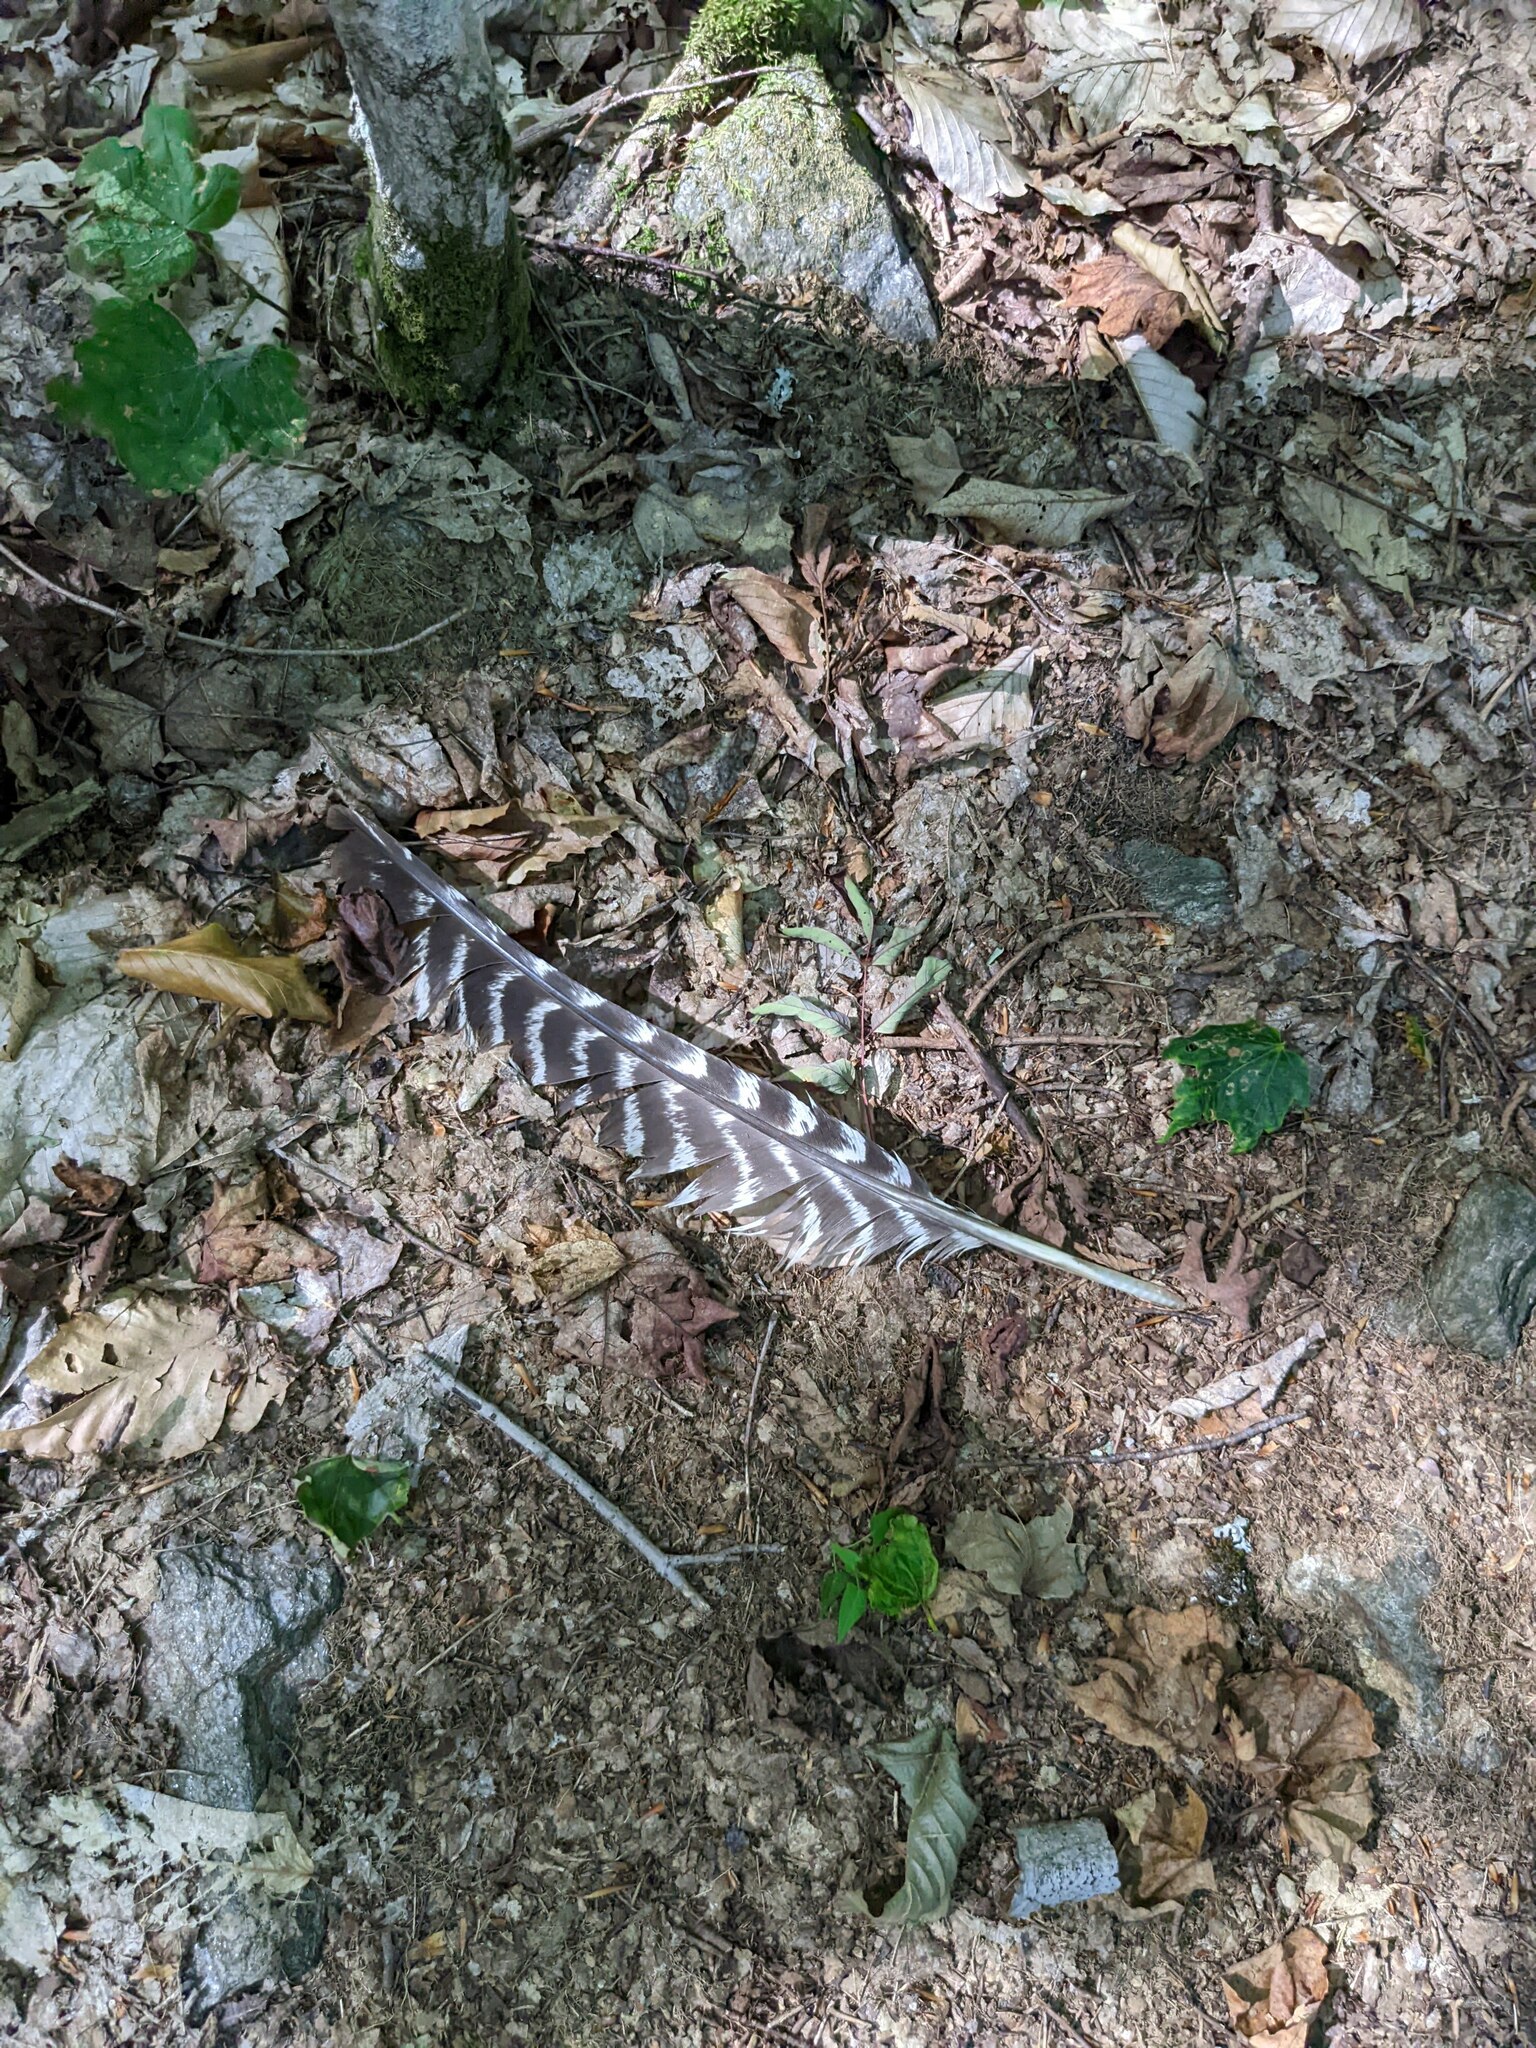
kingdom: Animalia
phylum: Chordata
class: Aves
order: Galliformes
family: Phasianidae
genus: Meleagris
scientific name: Meleagris gallopavo
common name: Wild turkey
